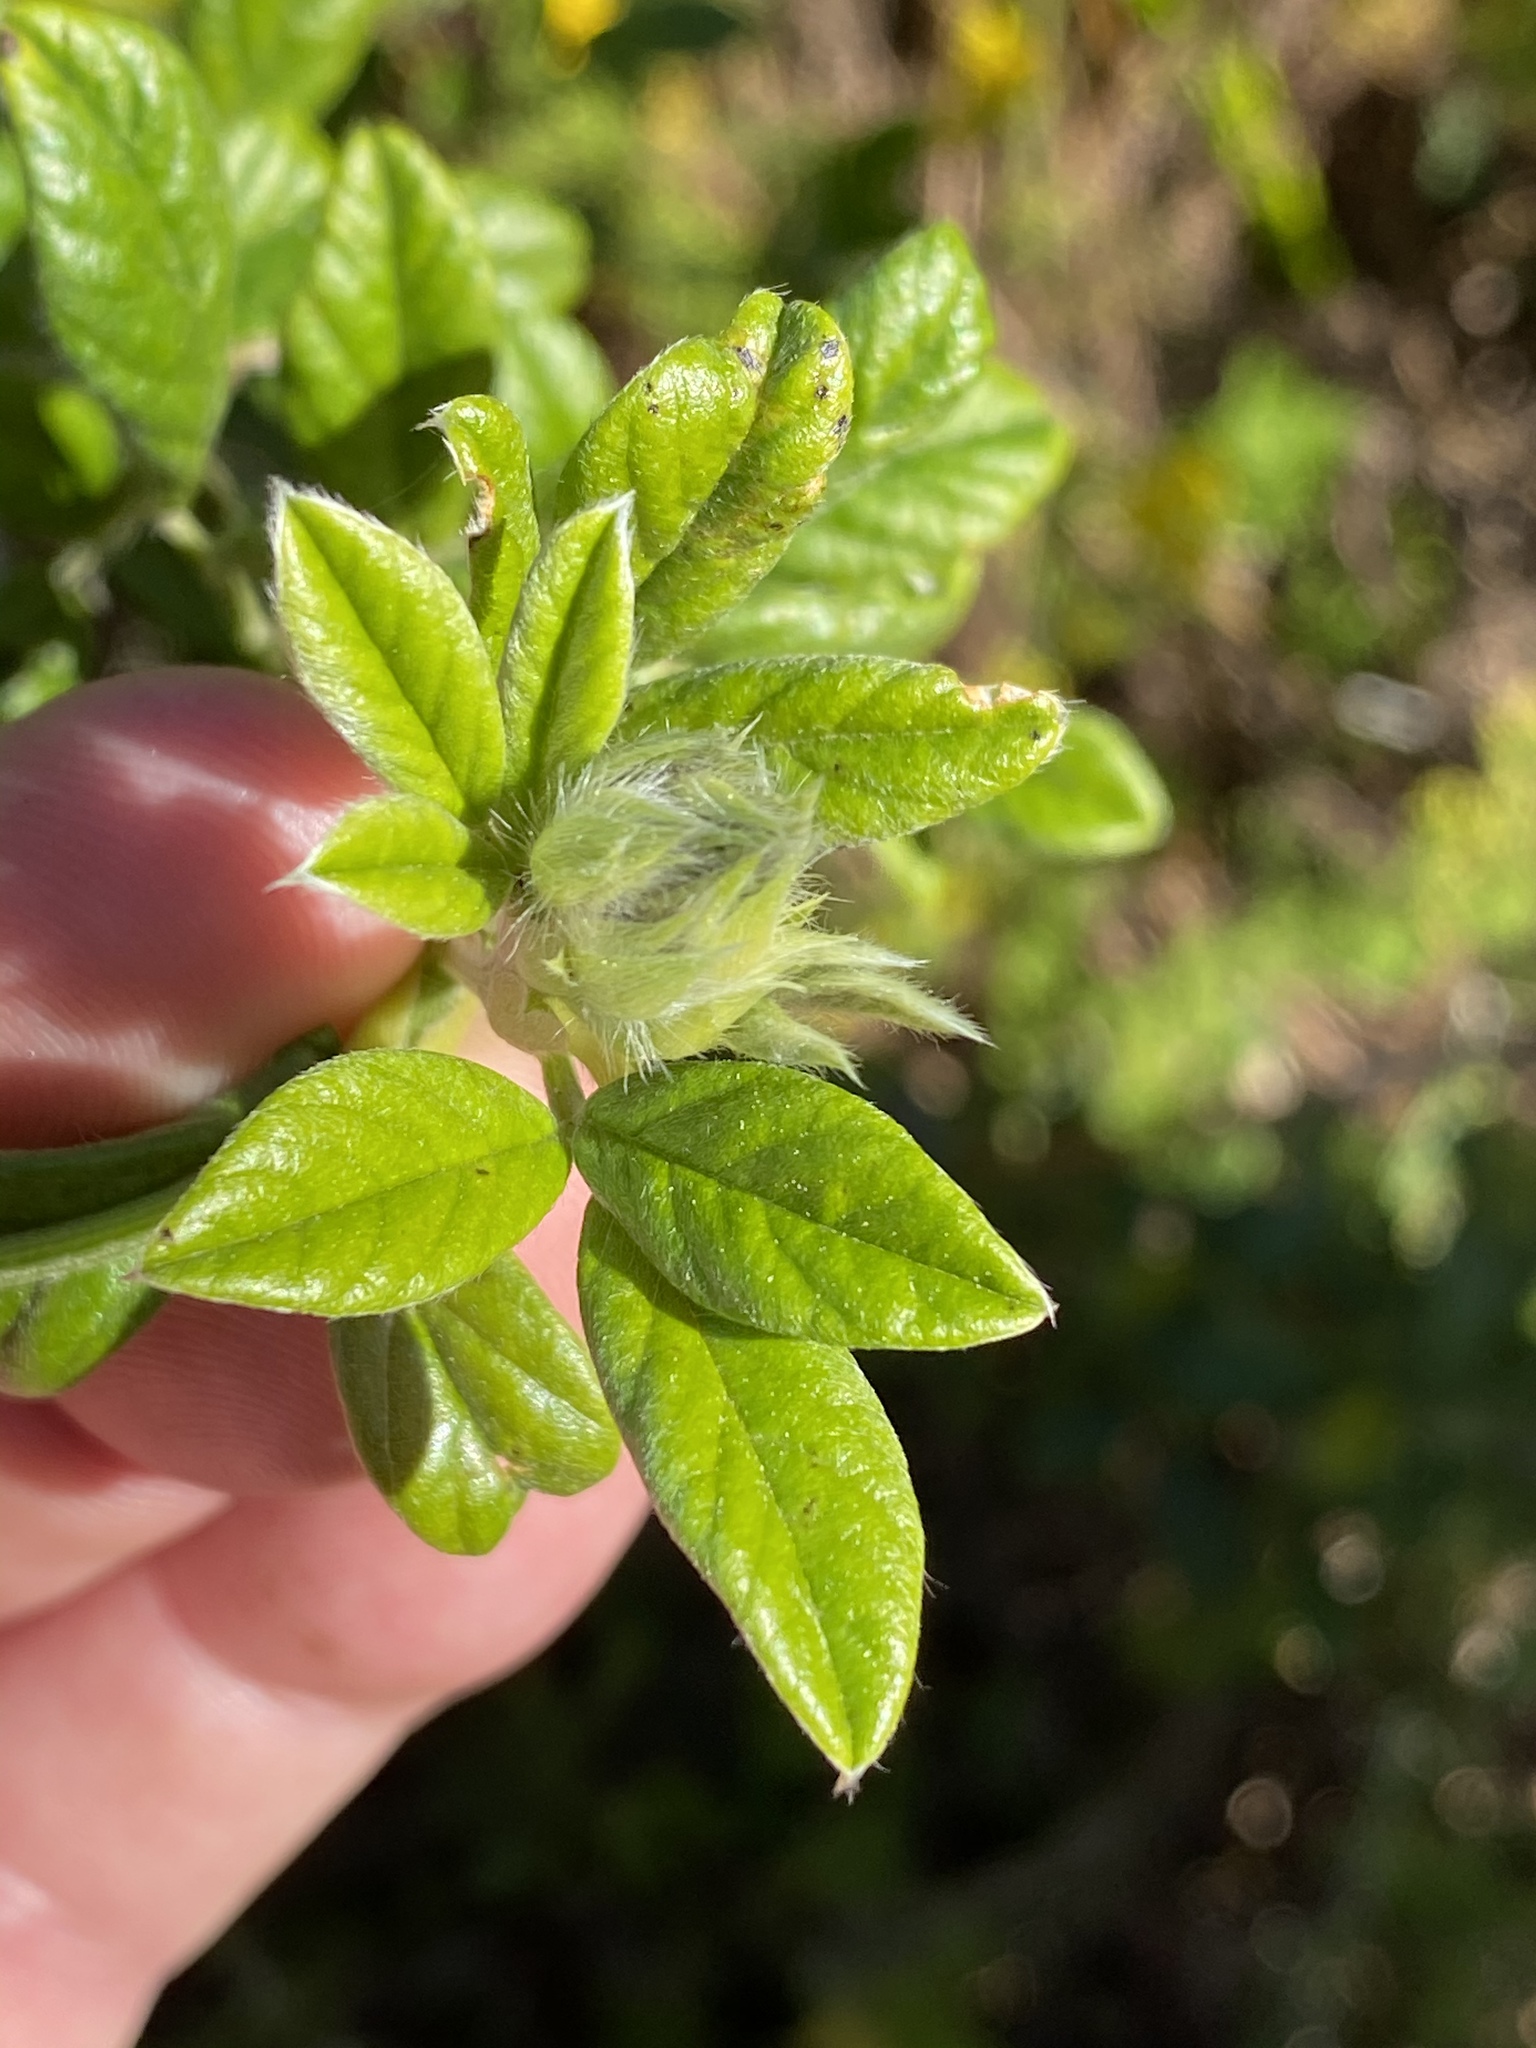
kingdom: Plantae
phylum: Tracheophyta
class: Magnoliopsida
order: Fabales
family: Fabaceae
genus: Psoralea
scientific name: Psoralea sericea
